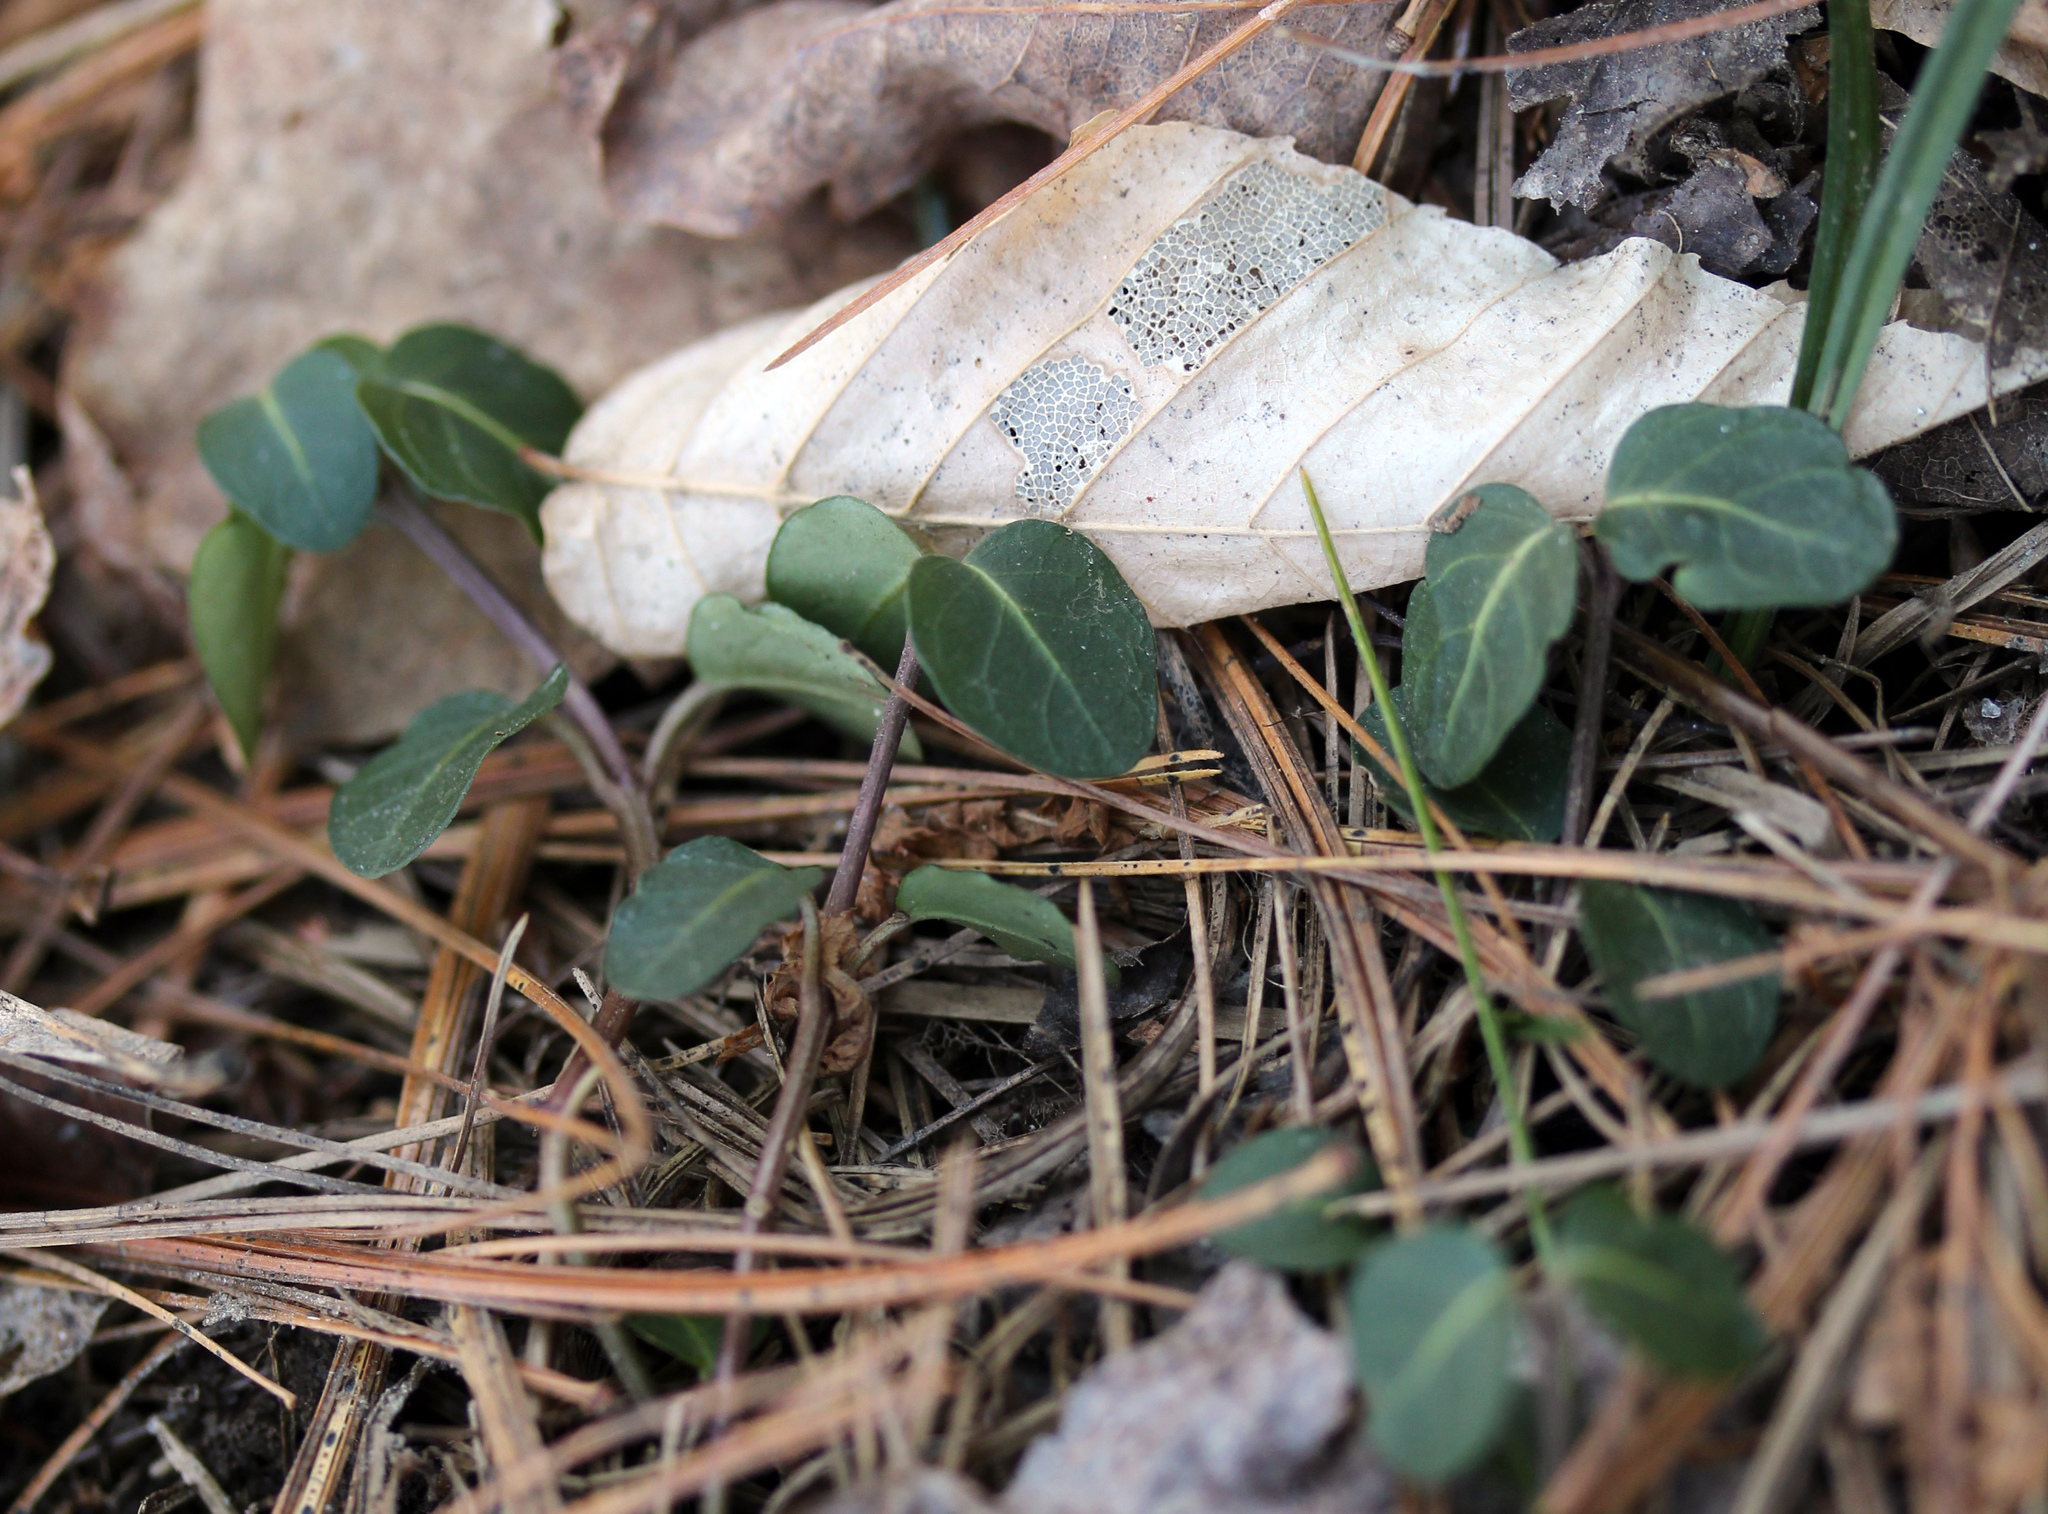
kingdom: Plantae
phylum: Tracheophyta
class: Magnoliopsida
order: Gentianales
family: Rubiaceae
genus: Mitchella
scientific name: Mitchella repens
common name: Partridge-berry
